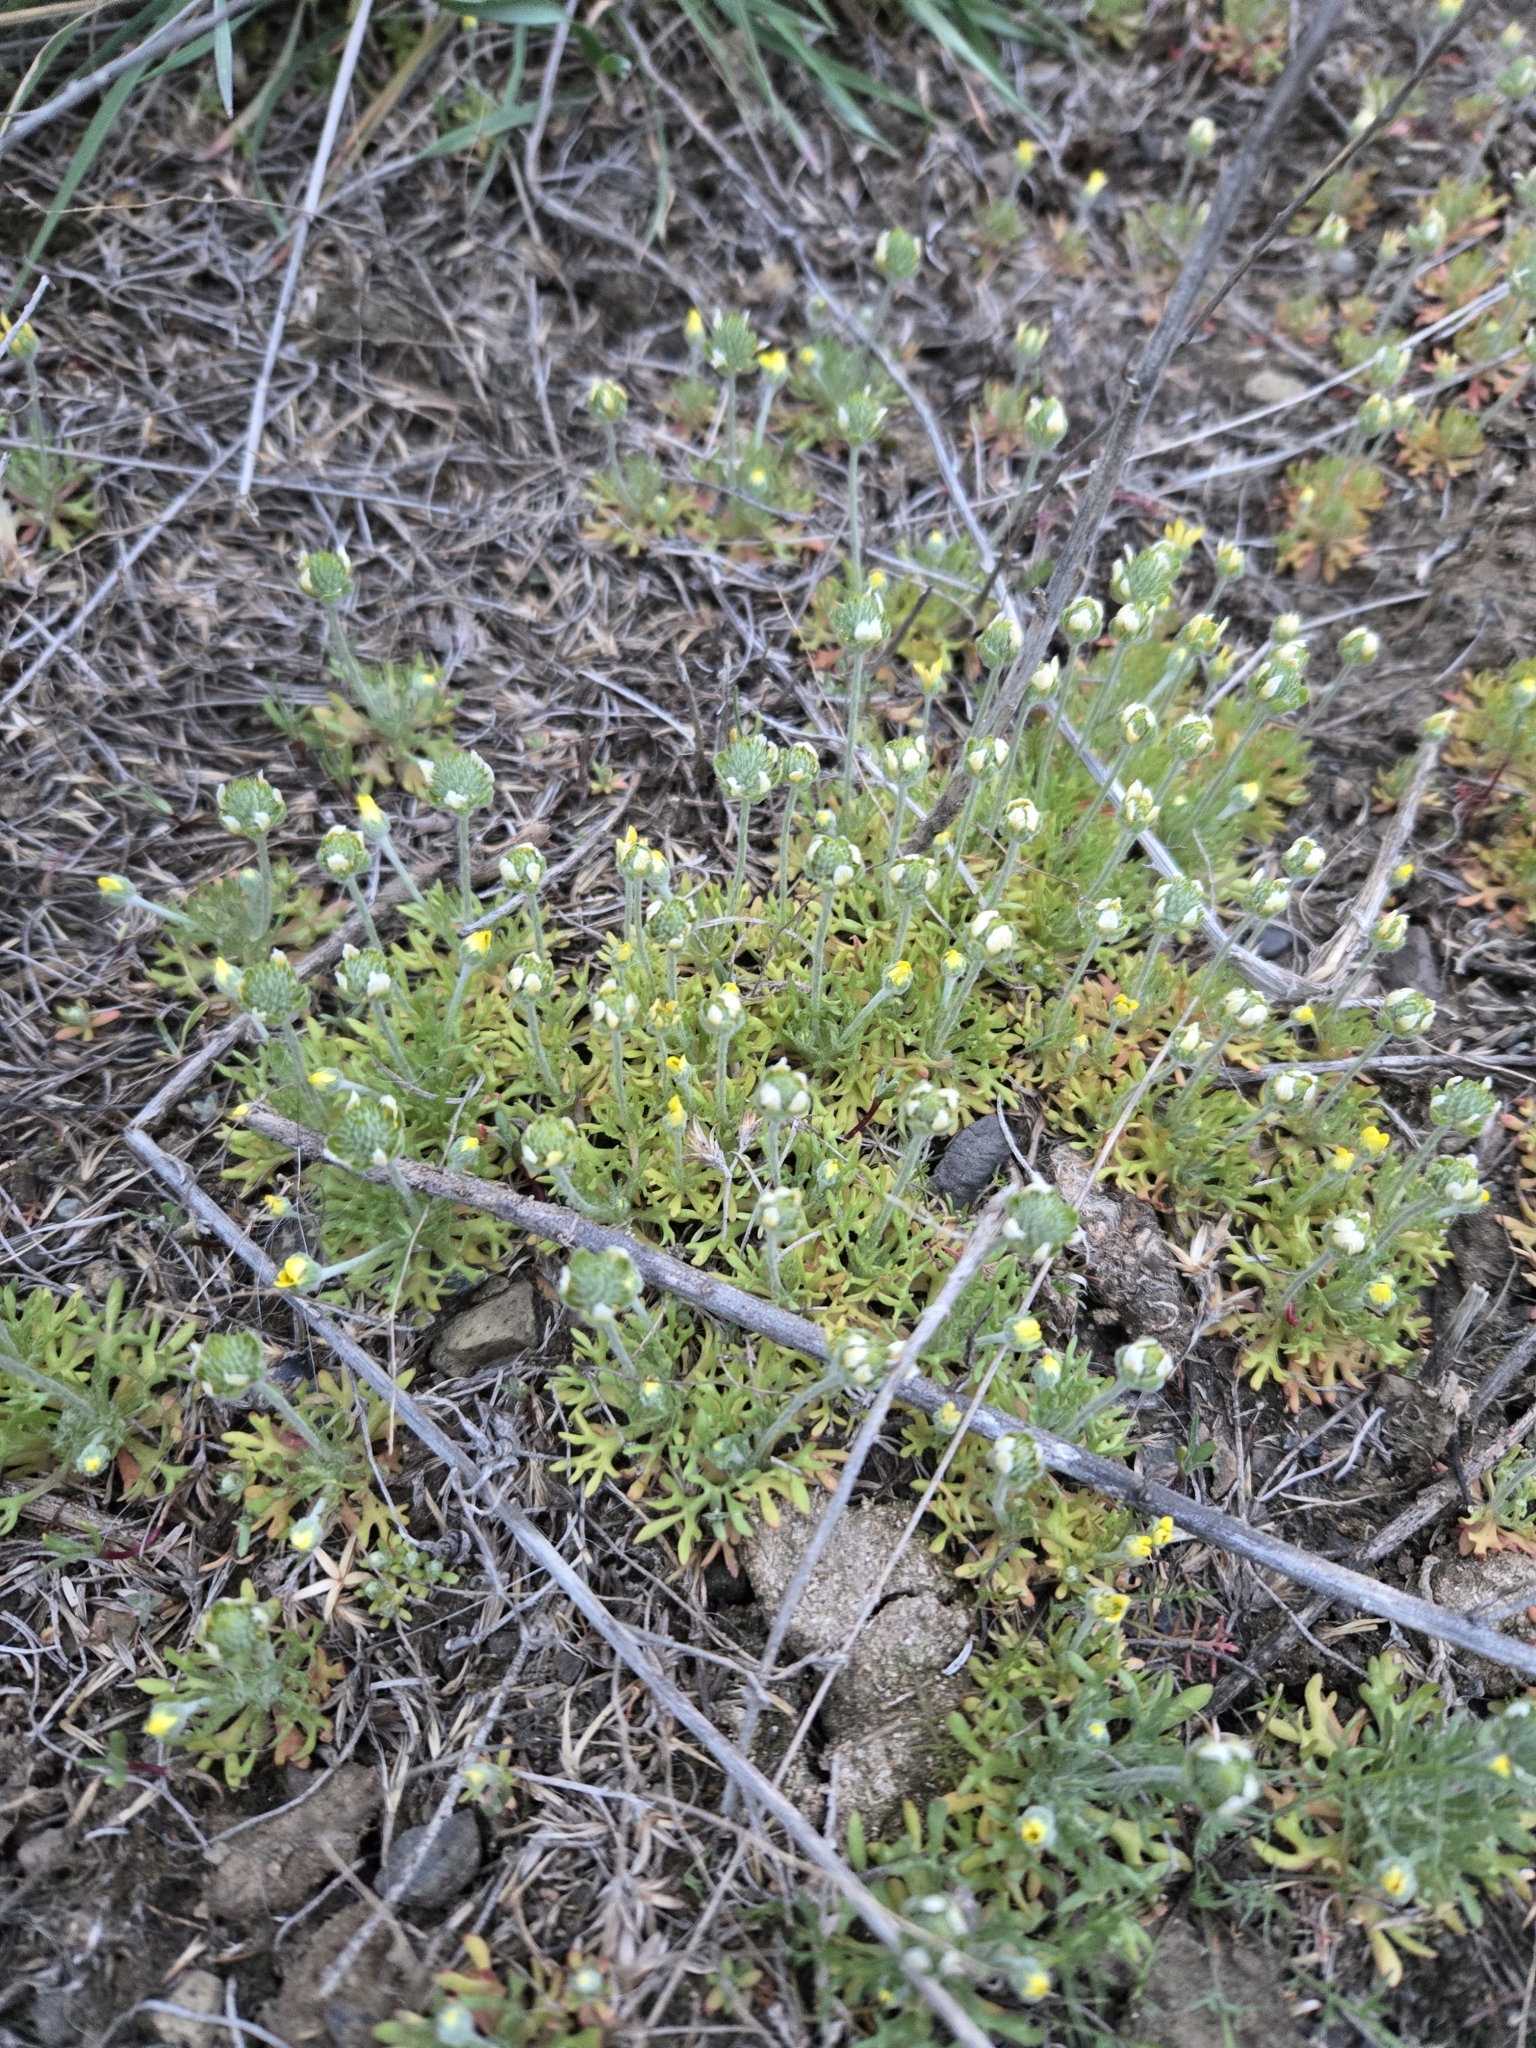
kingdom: Plantae
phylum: Tracheophyta
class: Magnoliopsida
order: Ranunculales
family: Ranunculaceae
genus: Ceratocephala
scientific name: Ceratocephala orthoceras
